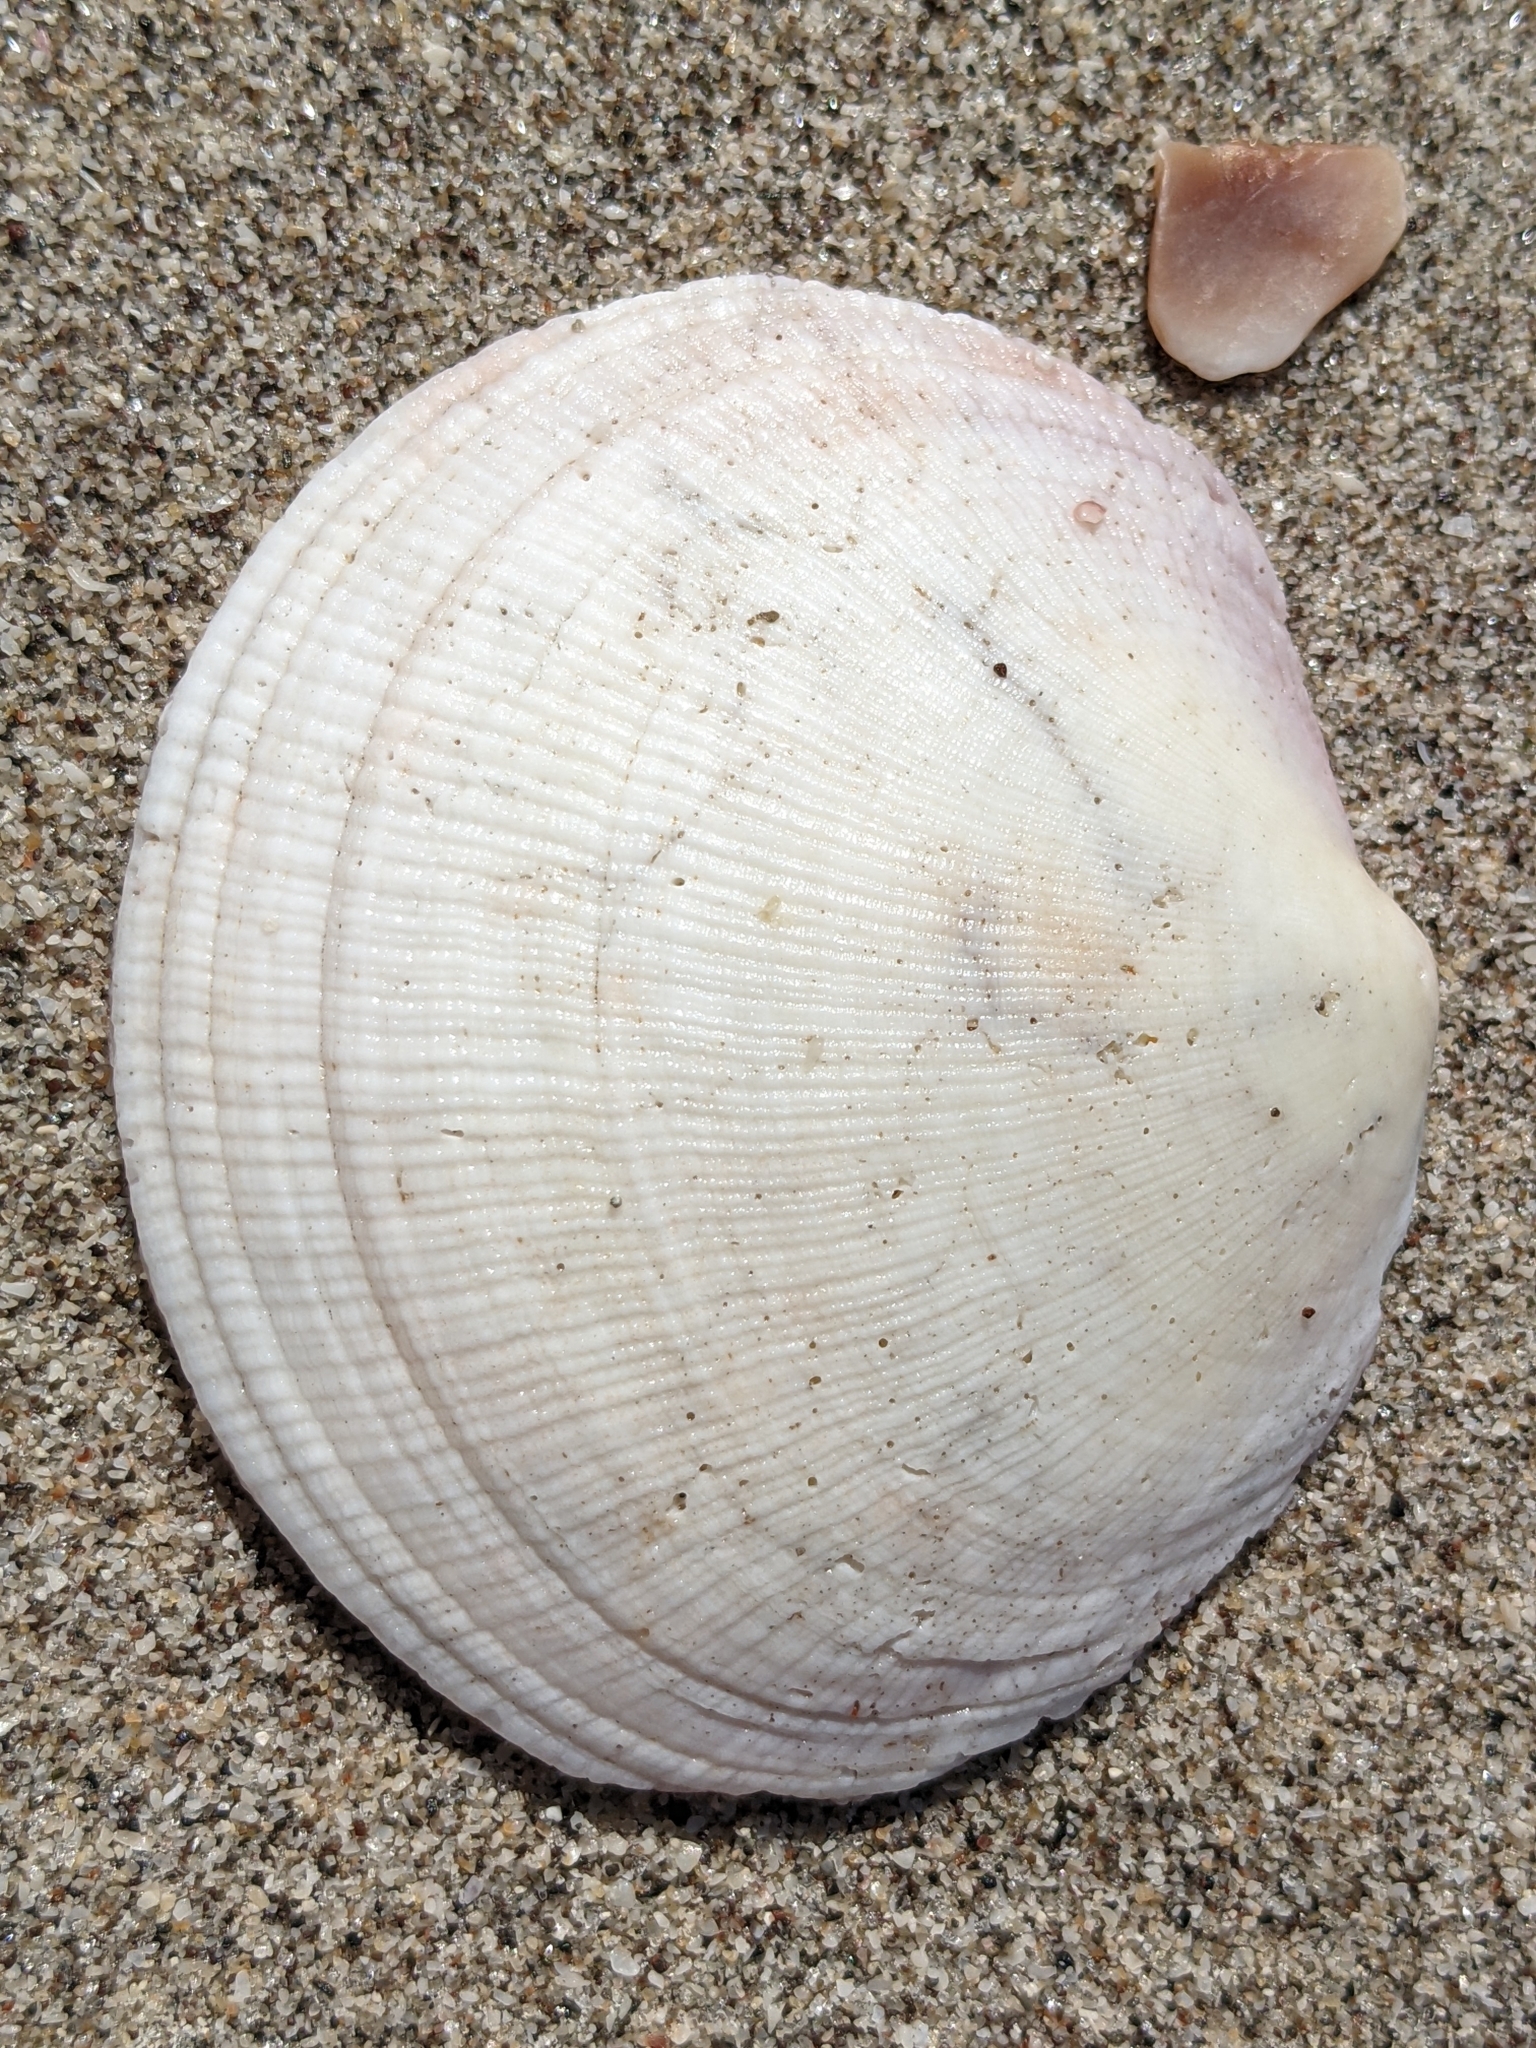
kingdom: Animalia
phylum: Mollusca
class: Bivalvia
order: Lucinida
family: Lucinidae
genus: Codakia
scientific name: Codakia distinguenda
